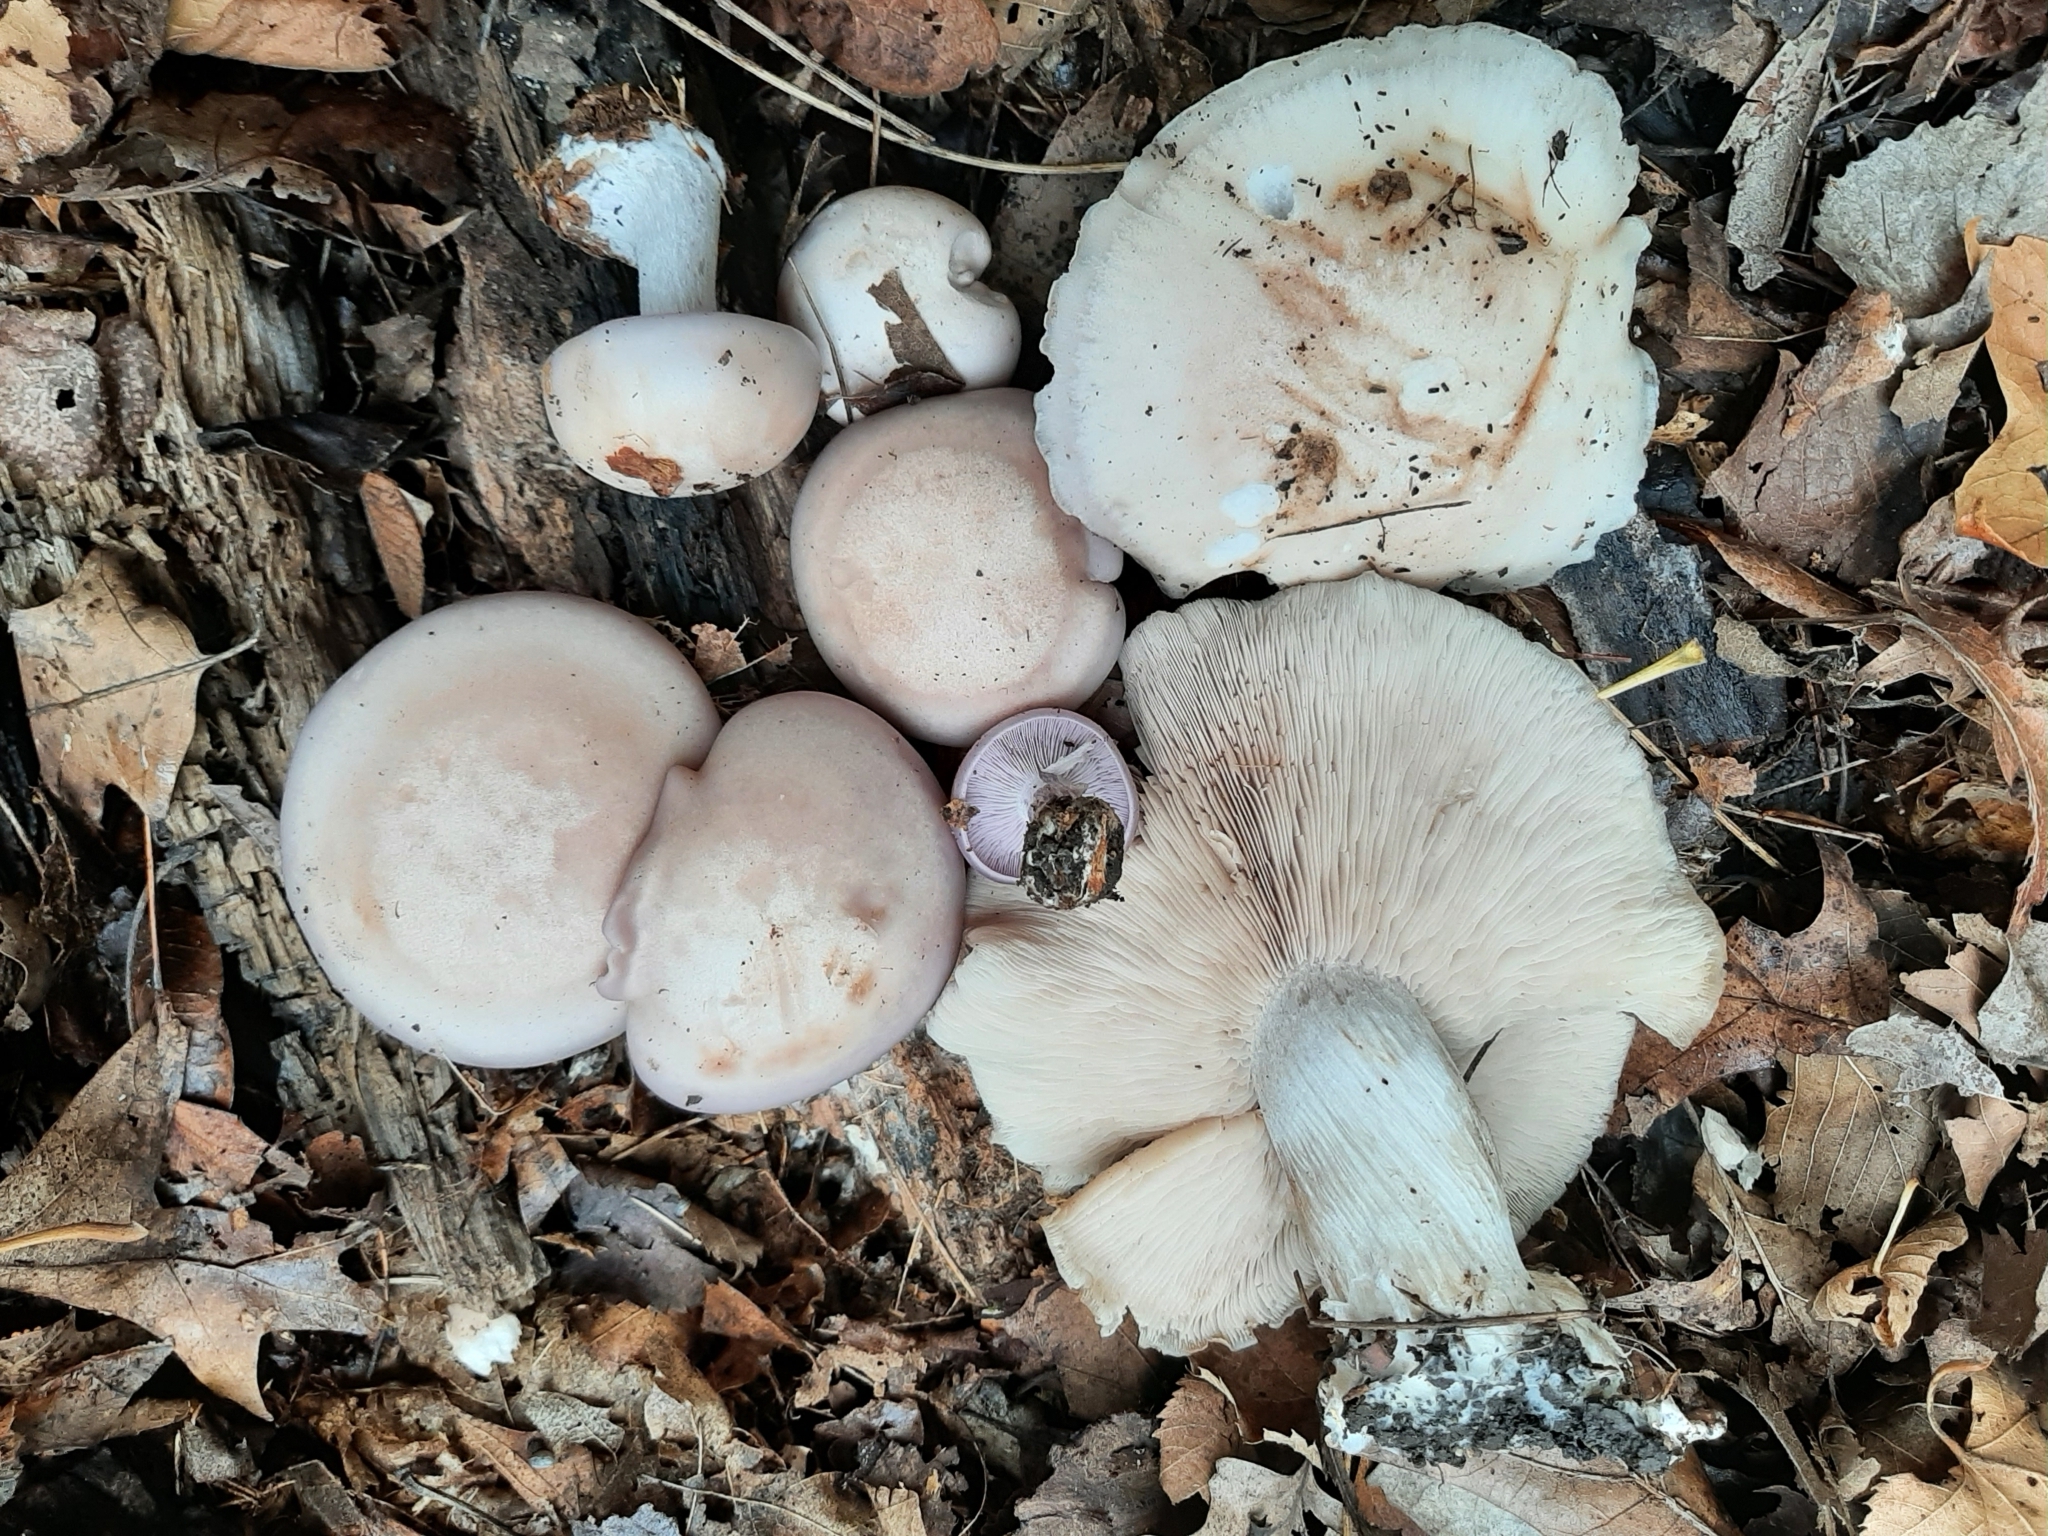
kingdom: Fungi
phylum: Basidiomycota
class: Agaricomycetes
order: Agaricales
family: Tricholomataceae
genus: Collybia
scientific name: Collybia
